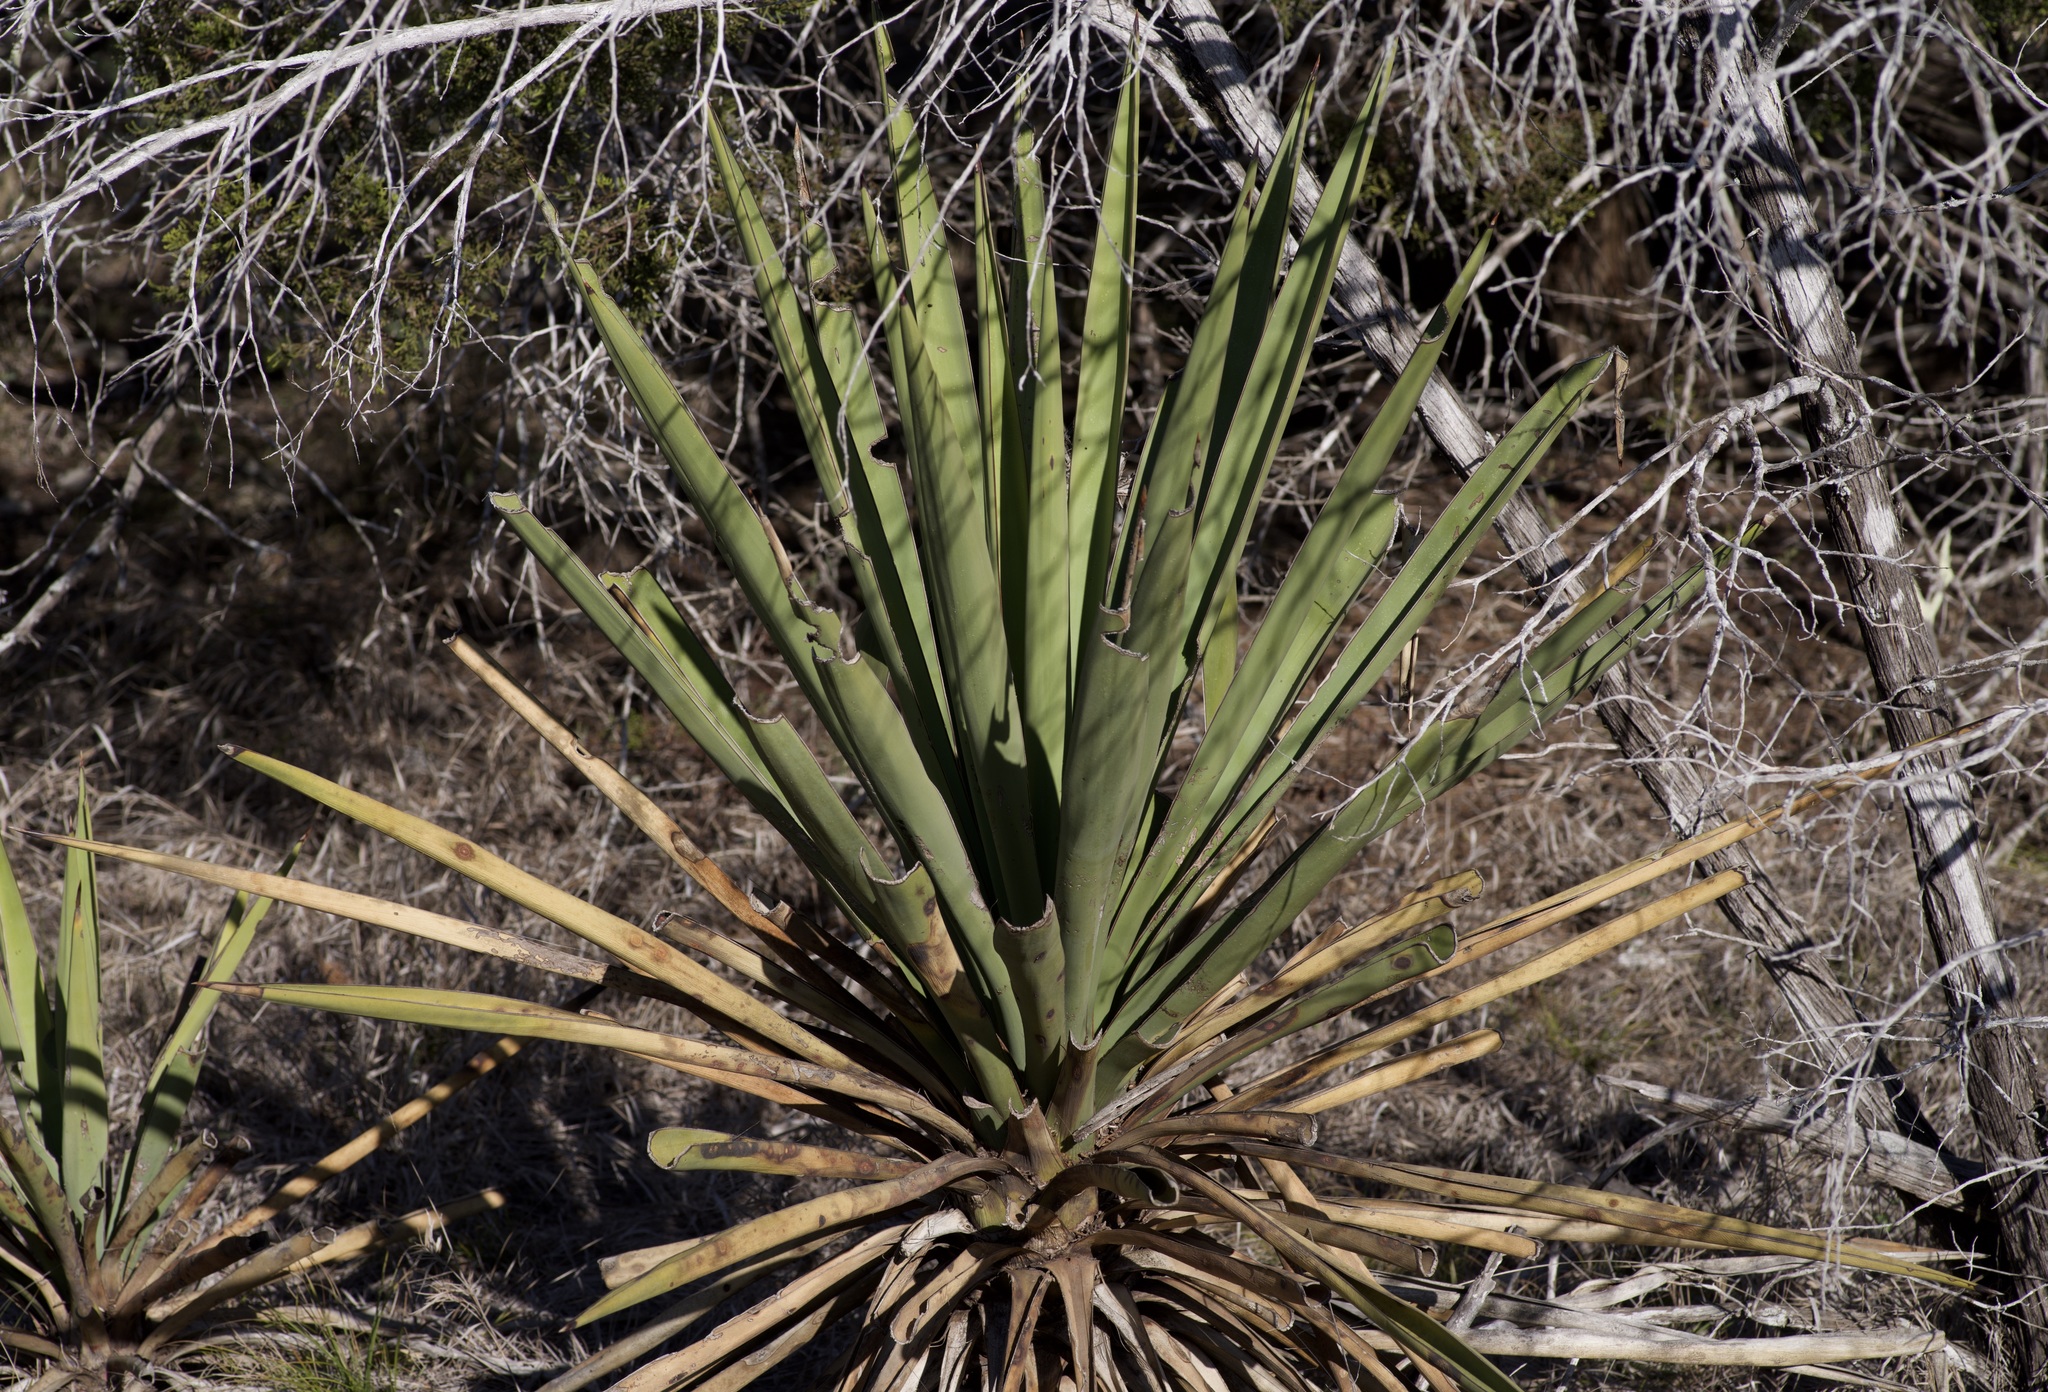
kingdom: Plantae
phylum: Tracheophyta
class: Liliopsida
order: Asparagales
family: Asparagaceae
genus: Yucca
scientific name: Yucca treculiana
